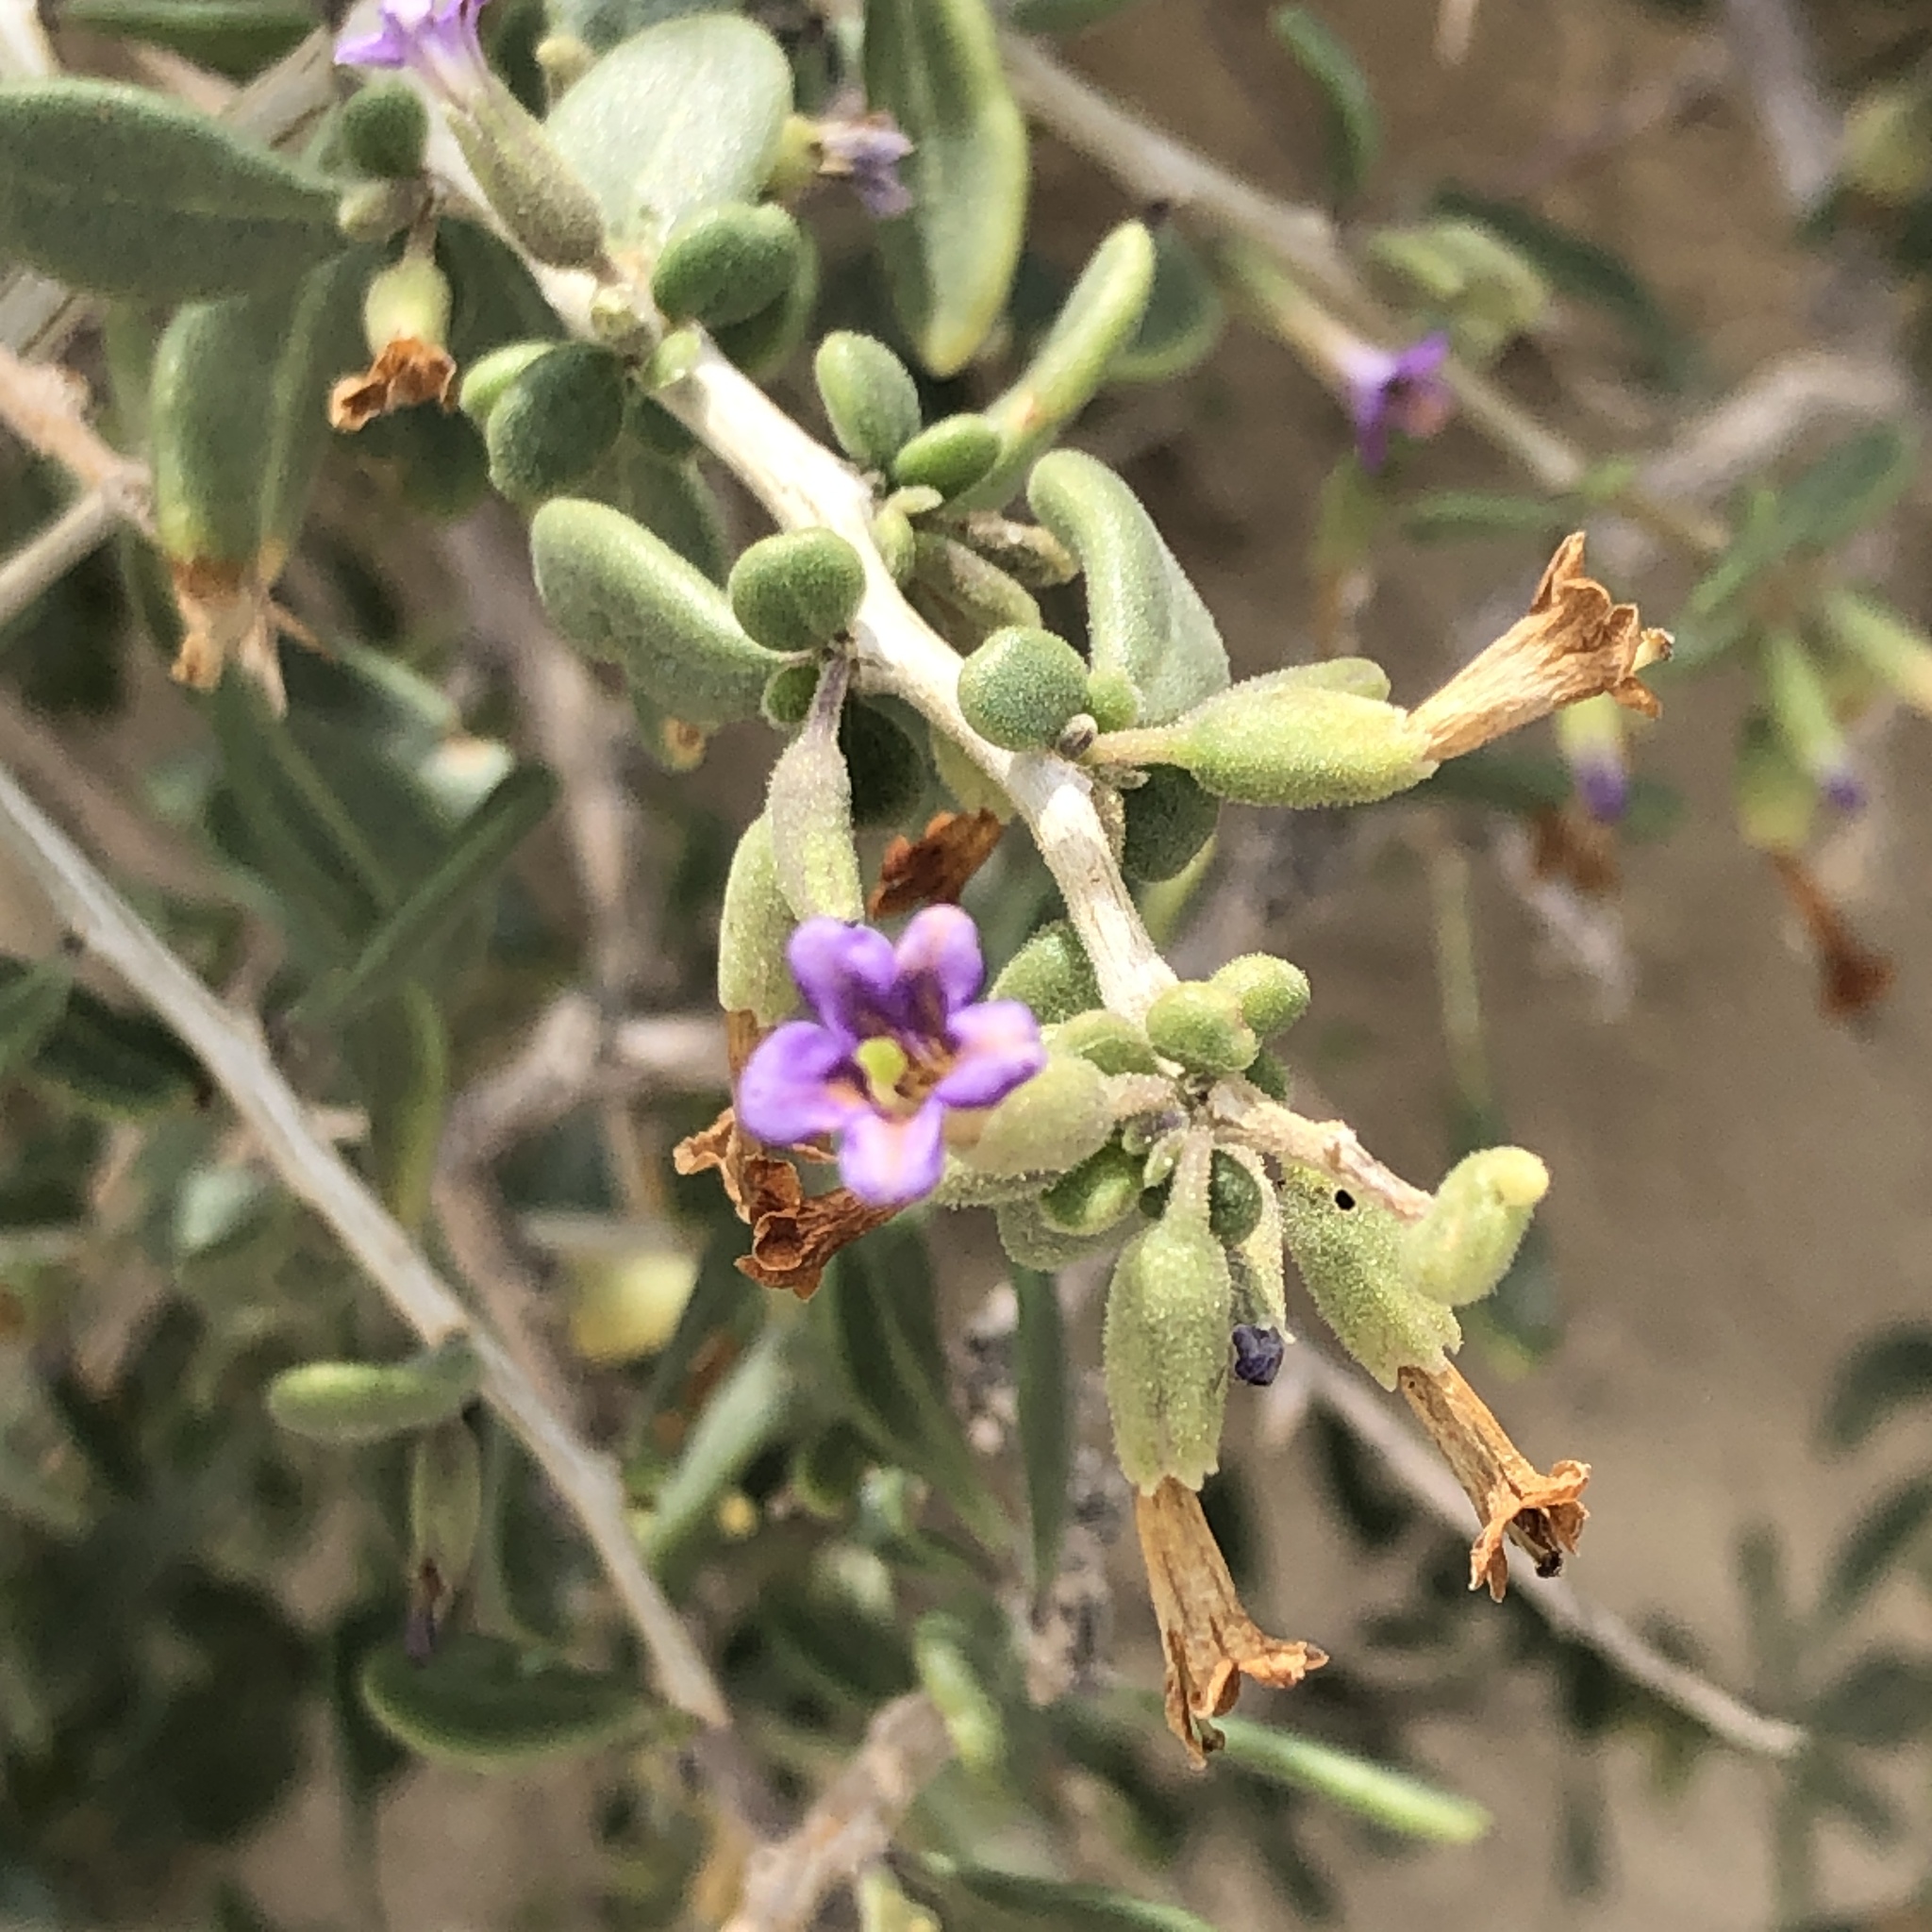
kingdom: Plantae
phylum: Tracheophyta
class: Magnoliopsida
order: Solanales
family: Solanaceae
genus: Lycium
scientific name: Lycium fremontii
